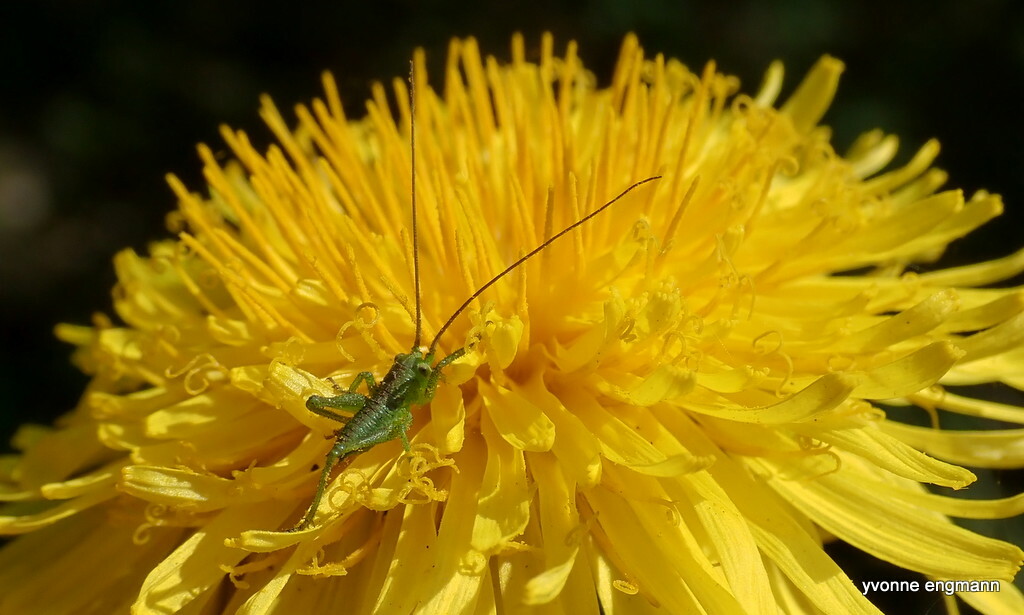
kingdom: Animalia
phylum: Arthropoda
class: Insecta
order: Orthoptera
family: Tettigoniidae
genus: Tettigonia
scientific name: Tettigonia viridissima
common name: Great green bush-cricket
